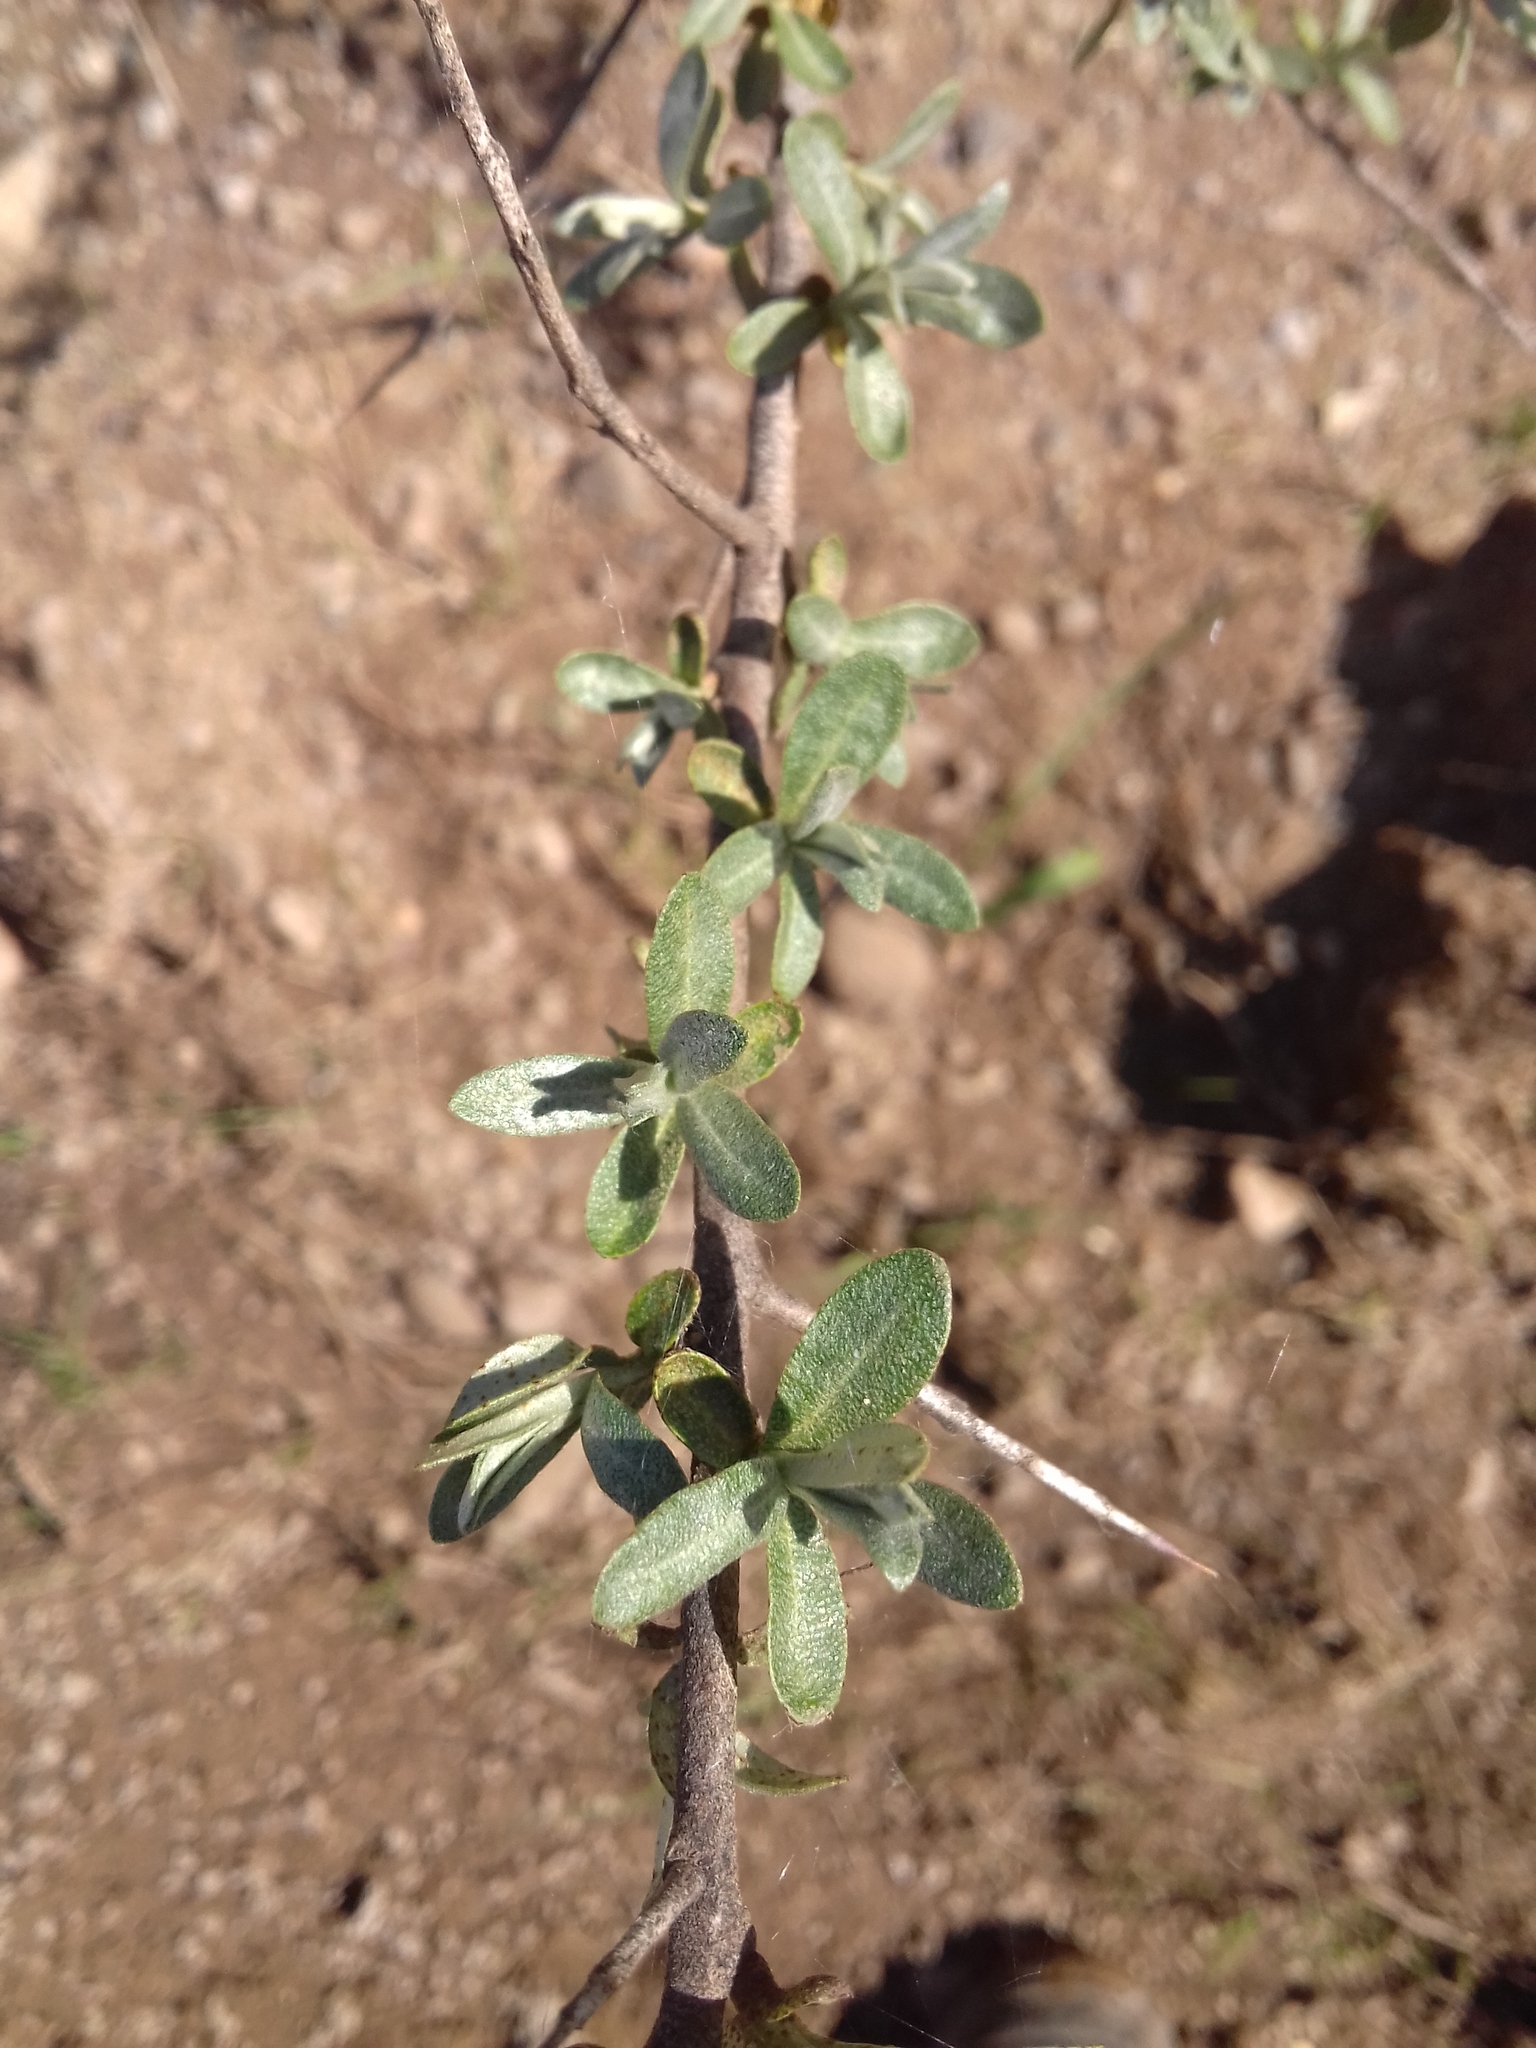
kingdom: Plantae
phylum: Tracheophyta
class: Magnoliopsida
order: Rosales
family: Elaeagnaceae
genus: Hippophae
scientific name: Hippophae rhamnoides
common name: Sea-buckthorn
